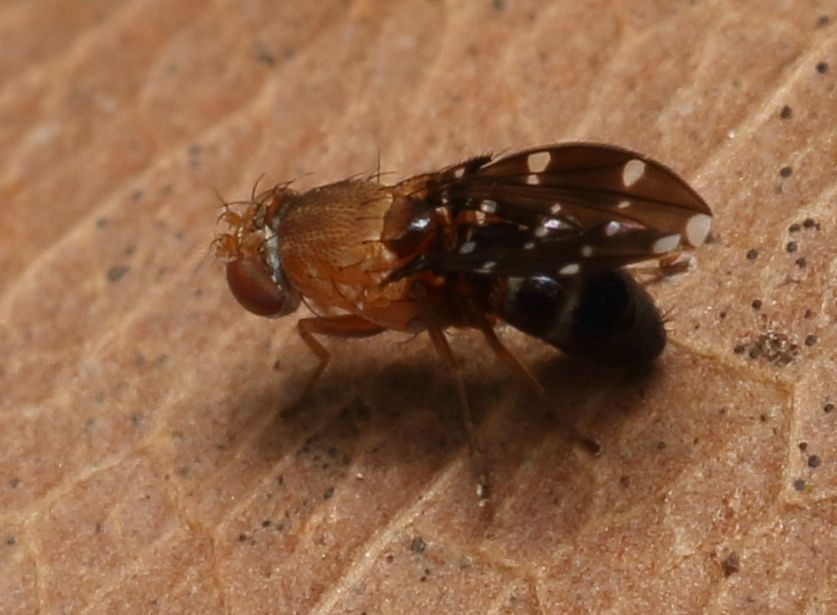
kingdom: Animalia
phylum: Arthropoda
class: Insecta
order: Diptera
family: Ephydridae
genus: Actocetor
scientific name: Actocetor decemugttatus
